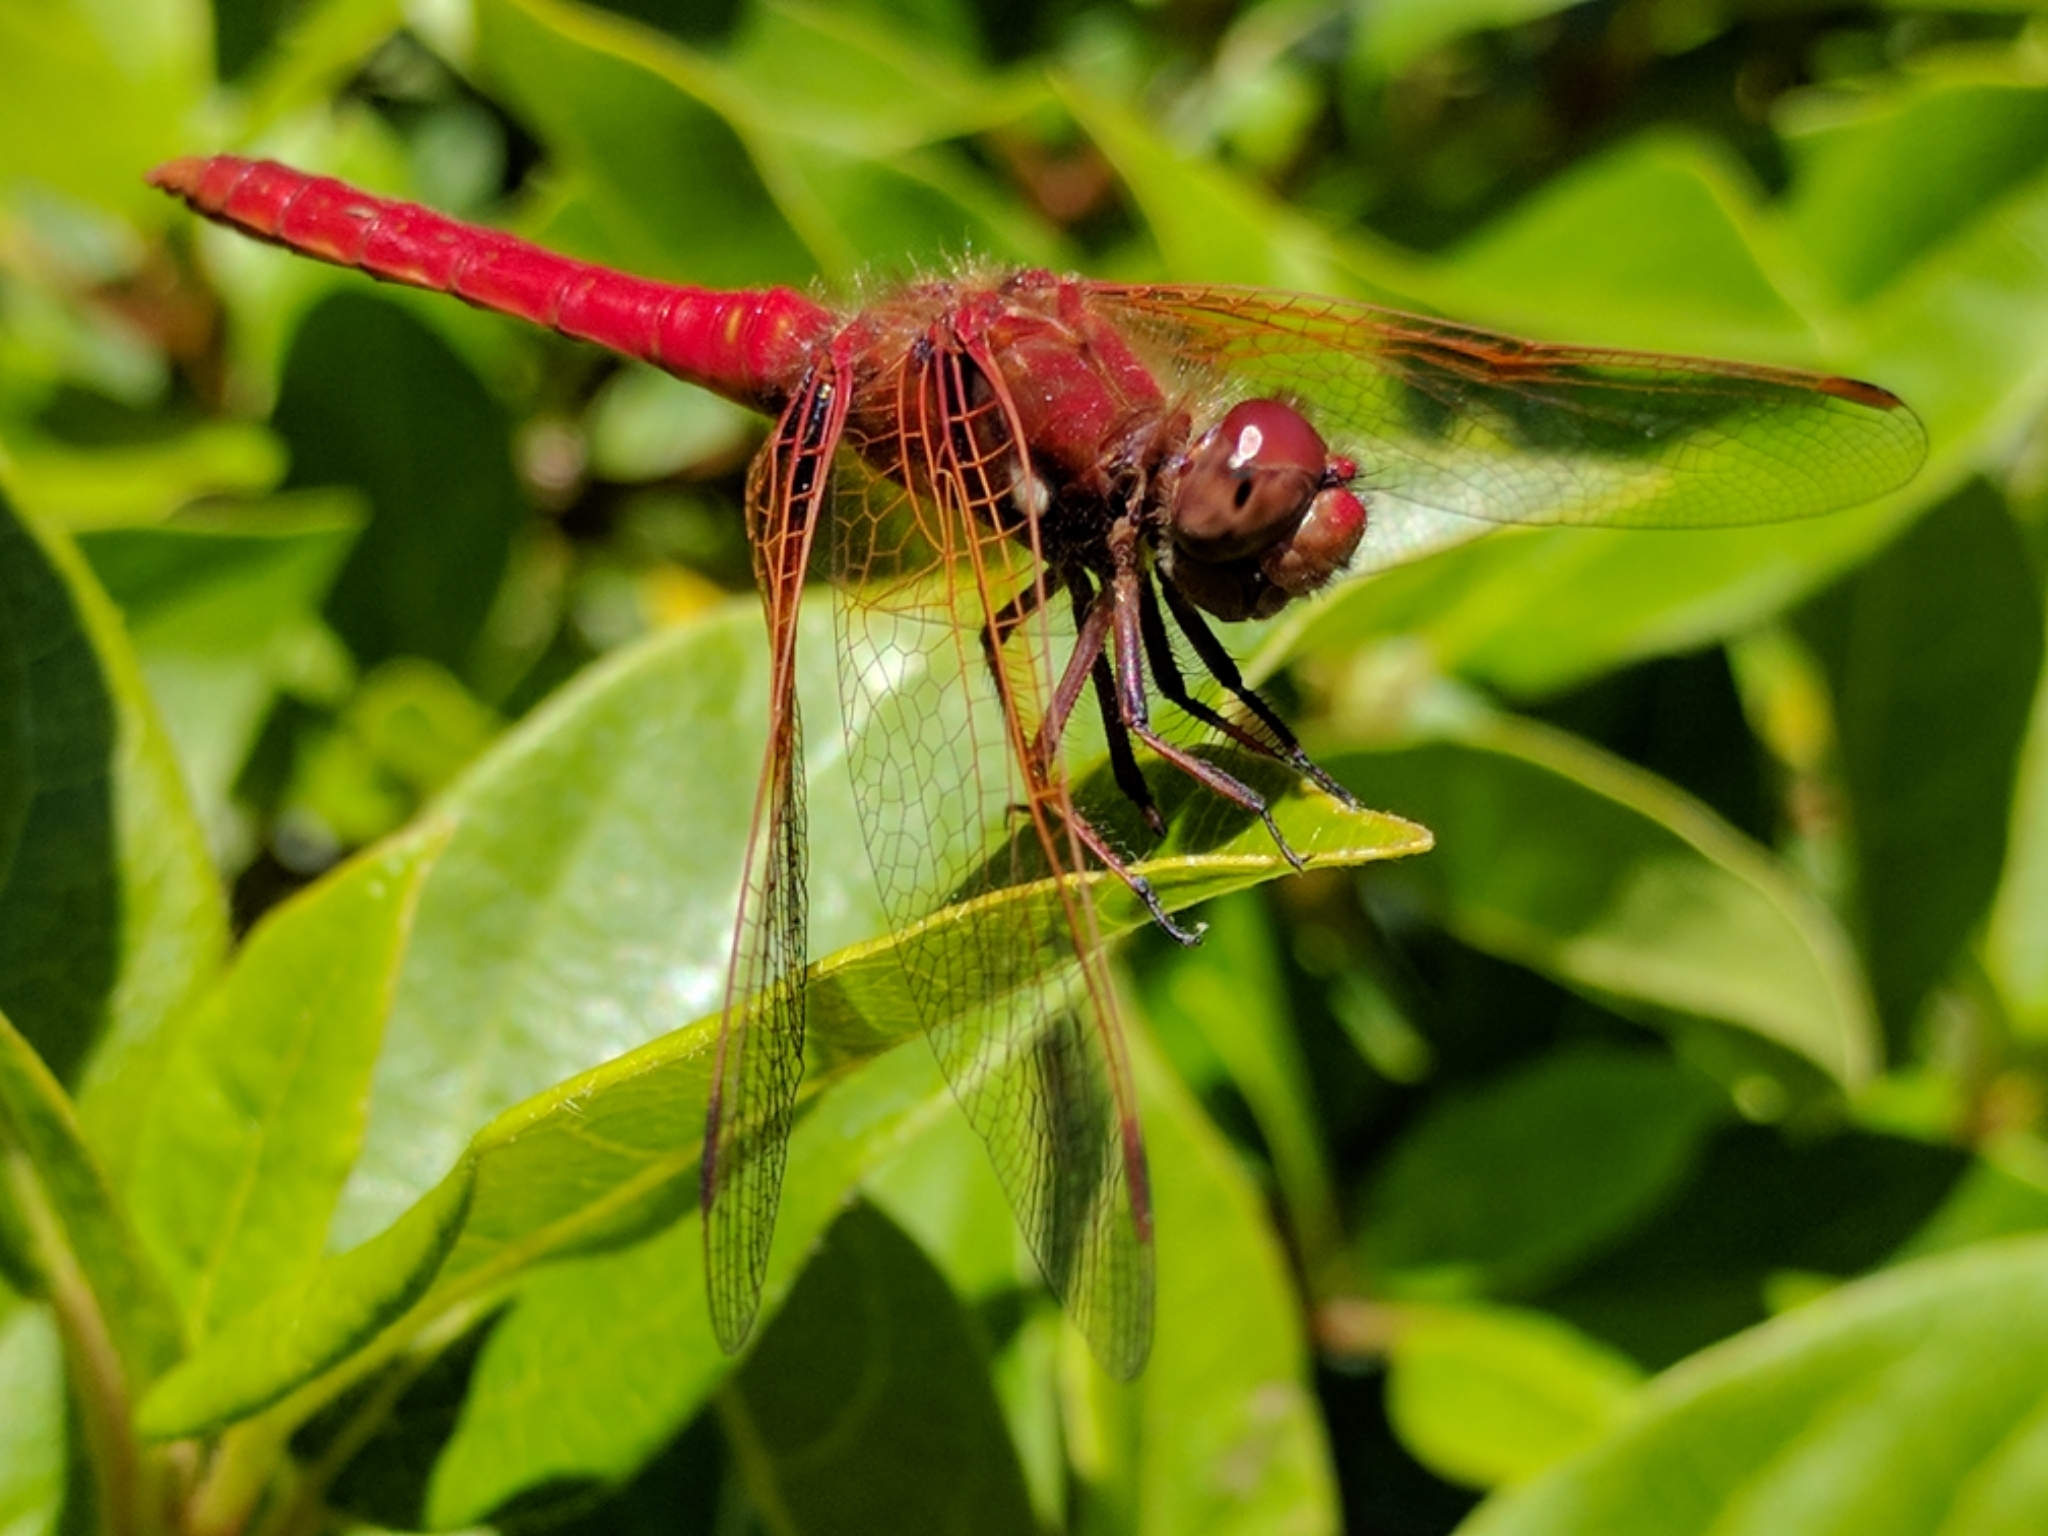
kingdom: Animalia
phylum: Arthropoda
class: Insecta
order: Odonata
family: Libellulidae
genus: Sympetrum
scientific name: Sympetrum illotum
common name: Cardinal meadowhawk
